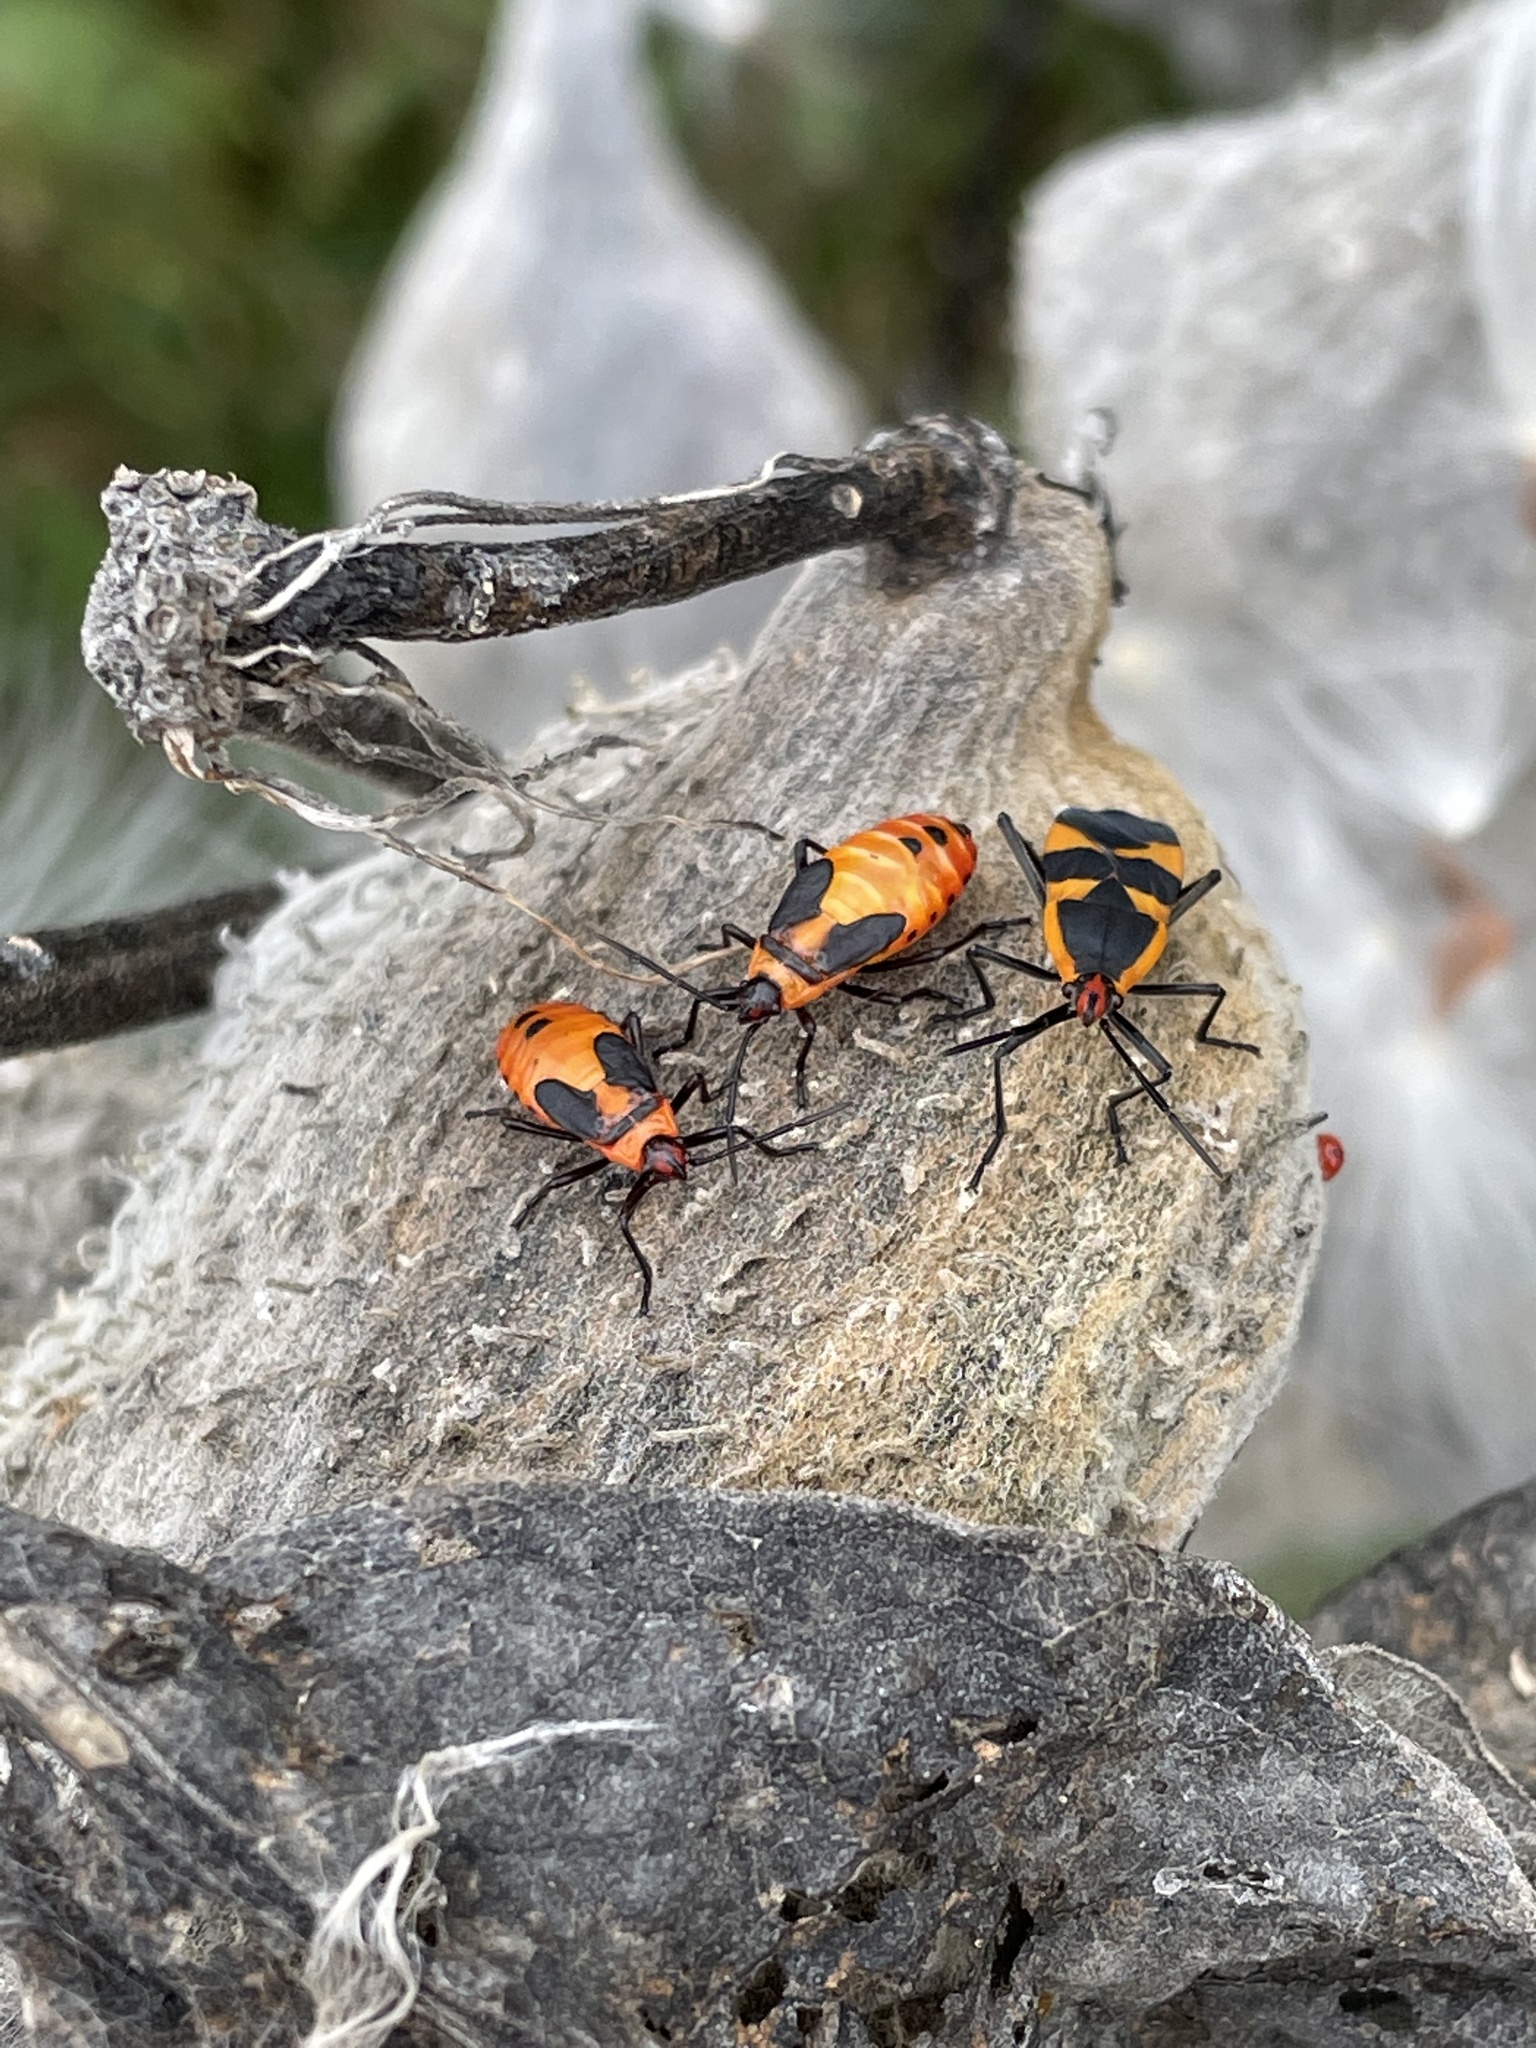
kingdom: Animalia
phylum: Arthropoda
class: Insecta
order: Hemiptera
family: Lygaeidae
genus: Oncopeltus
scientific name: Oncopeltus fasciatus
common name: Large milkweed bug
